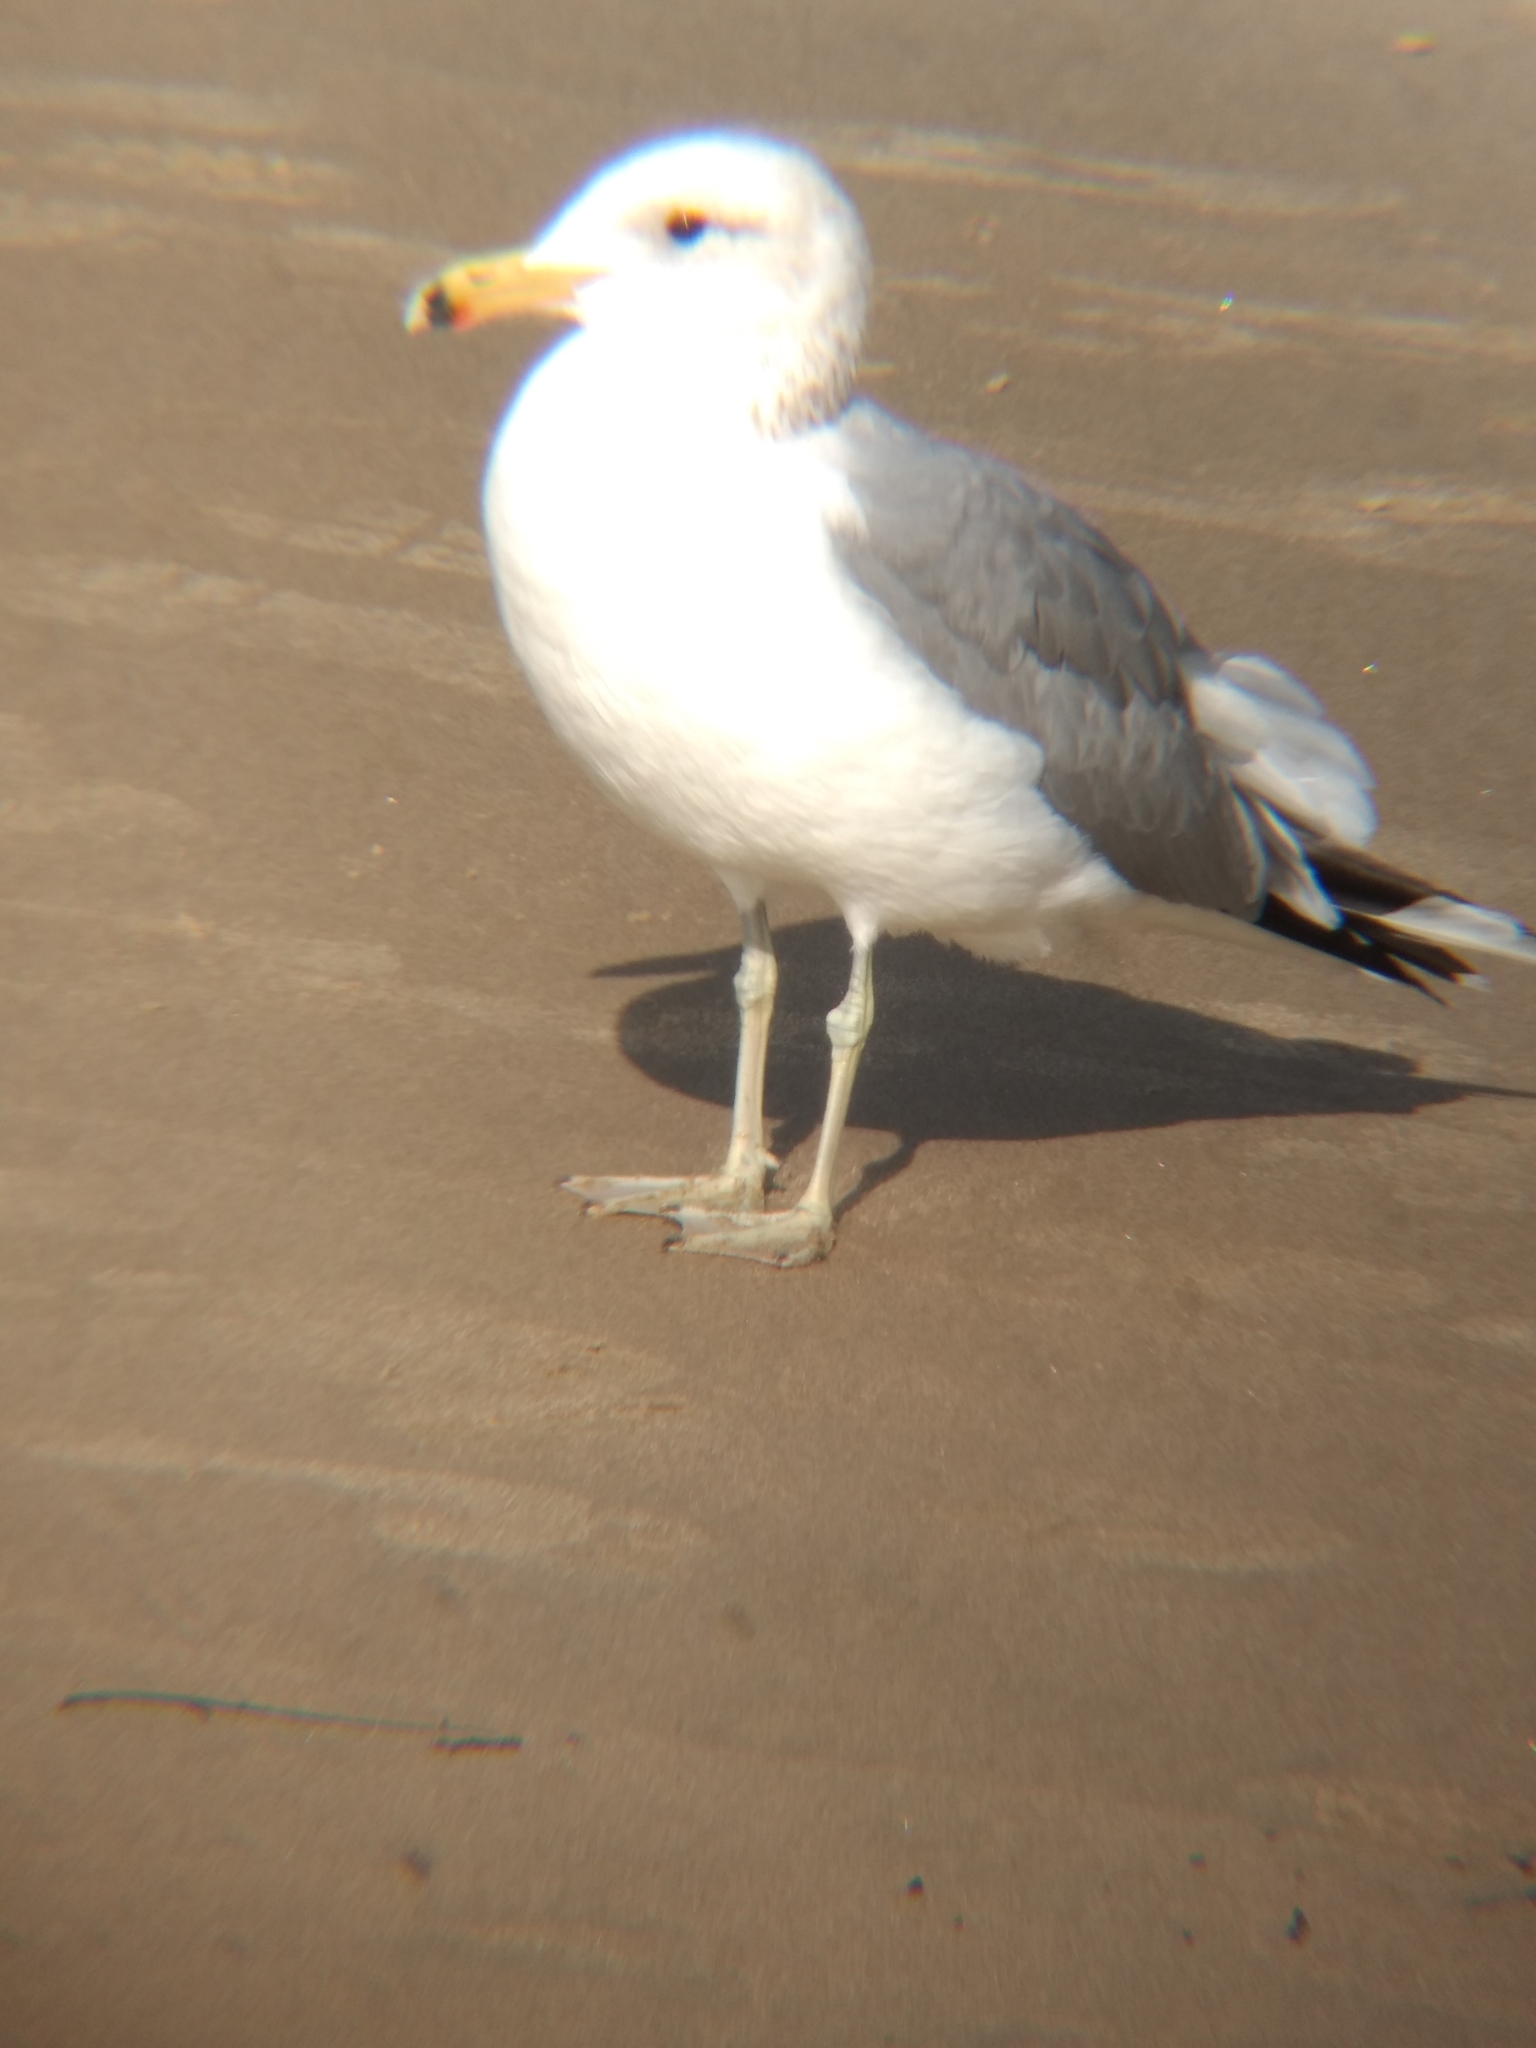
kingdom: Animalia
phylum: Chordata
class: Aves
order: Charadriiformes
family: Laridae
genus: Larus
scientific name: Larus californicus
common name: California gull
